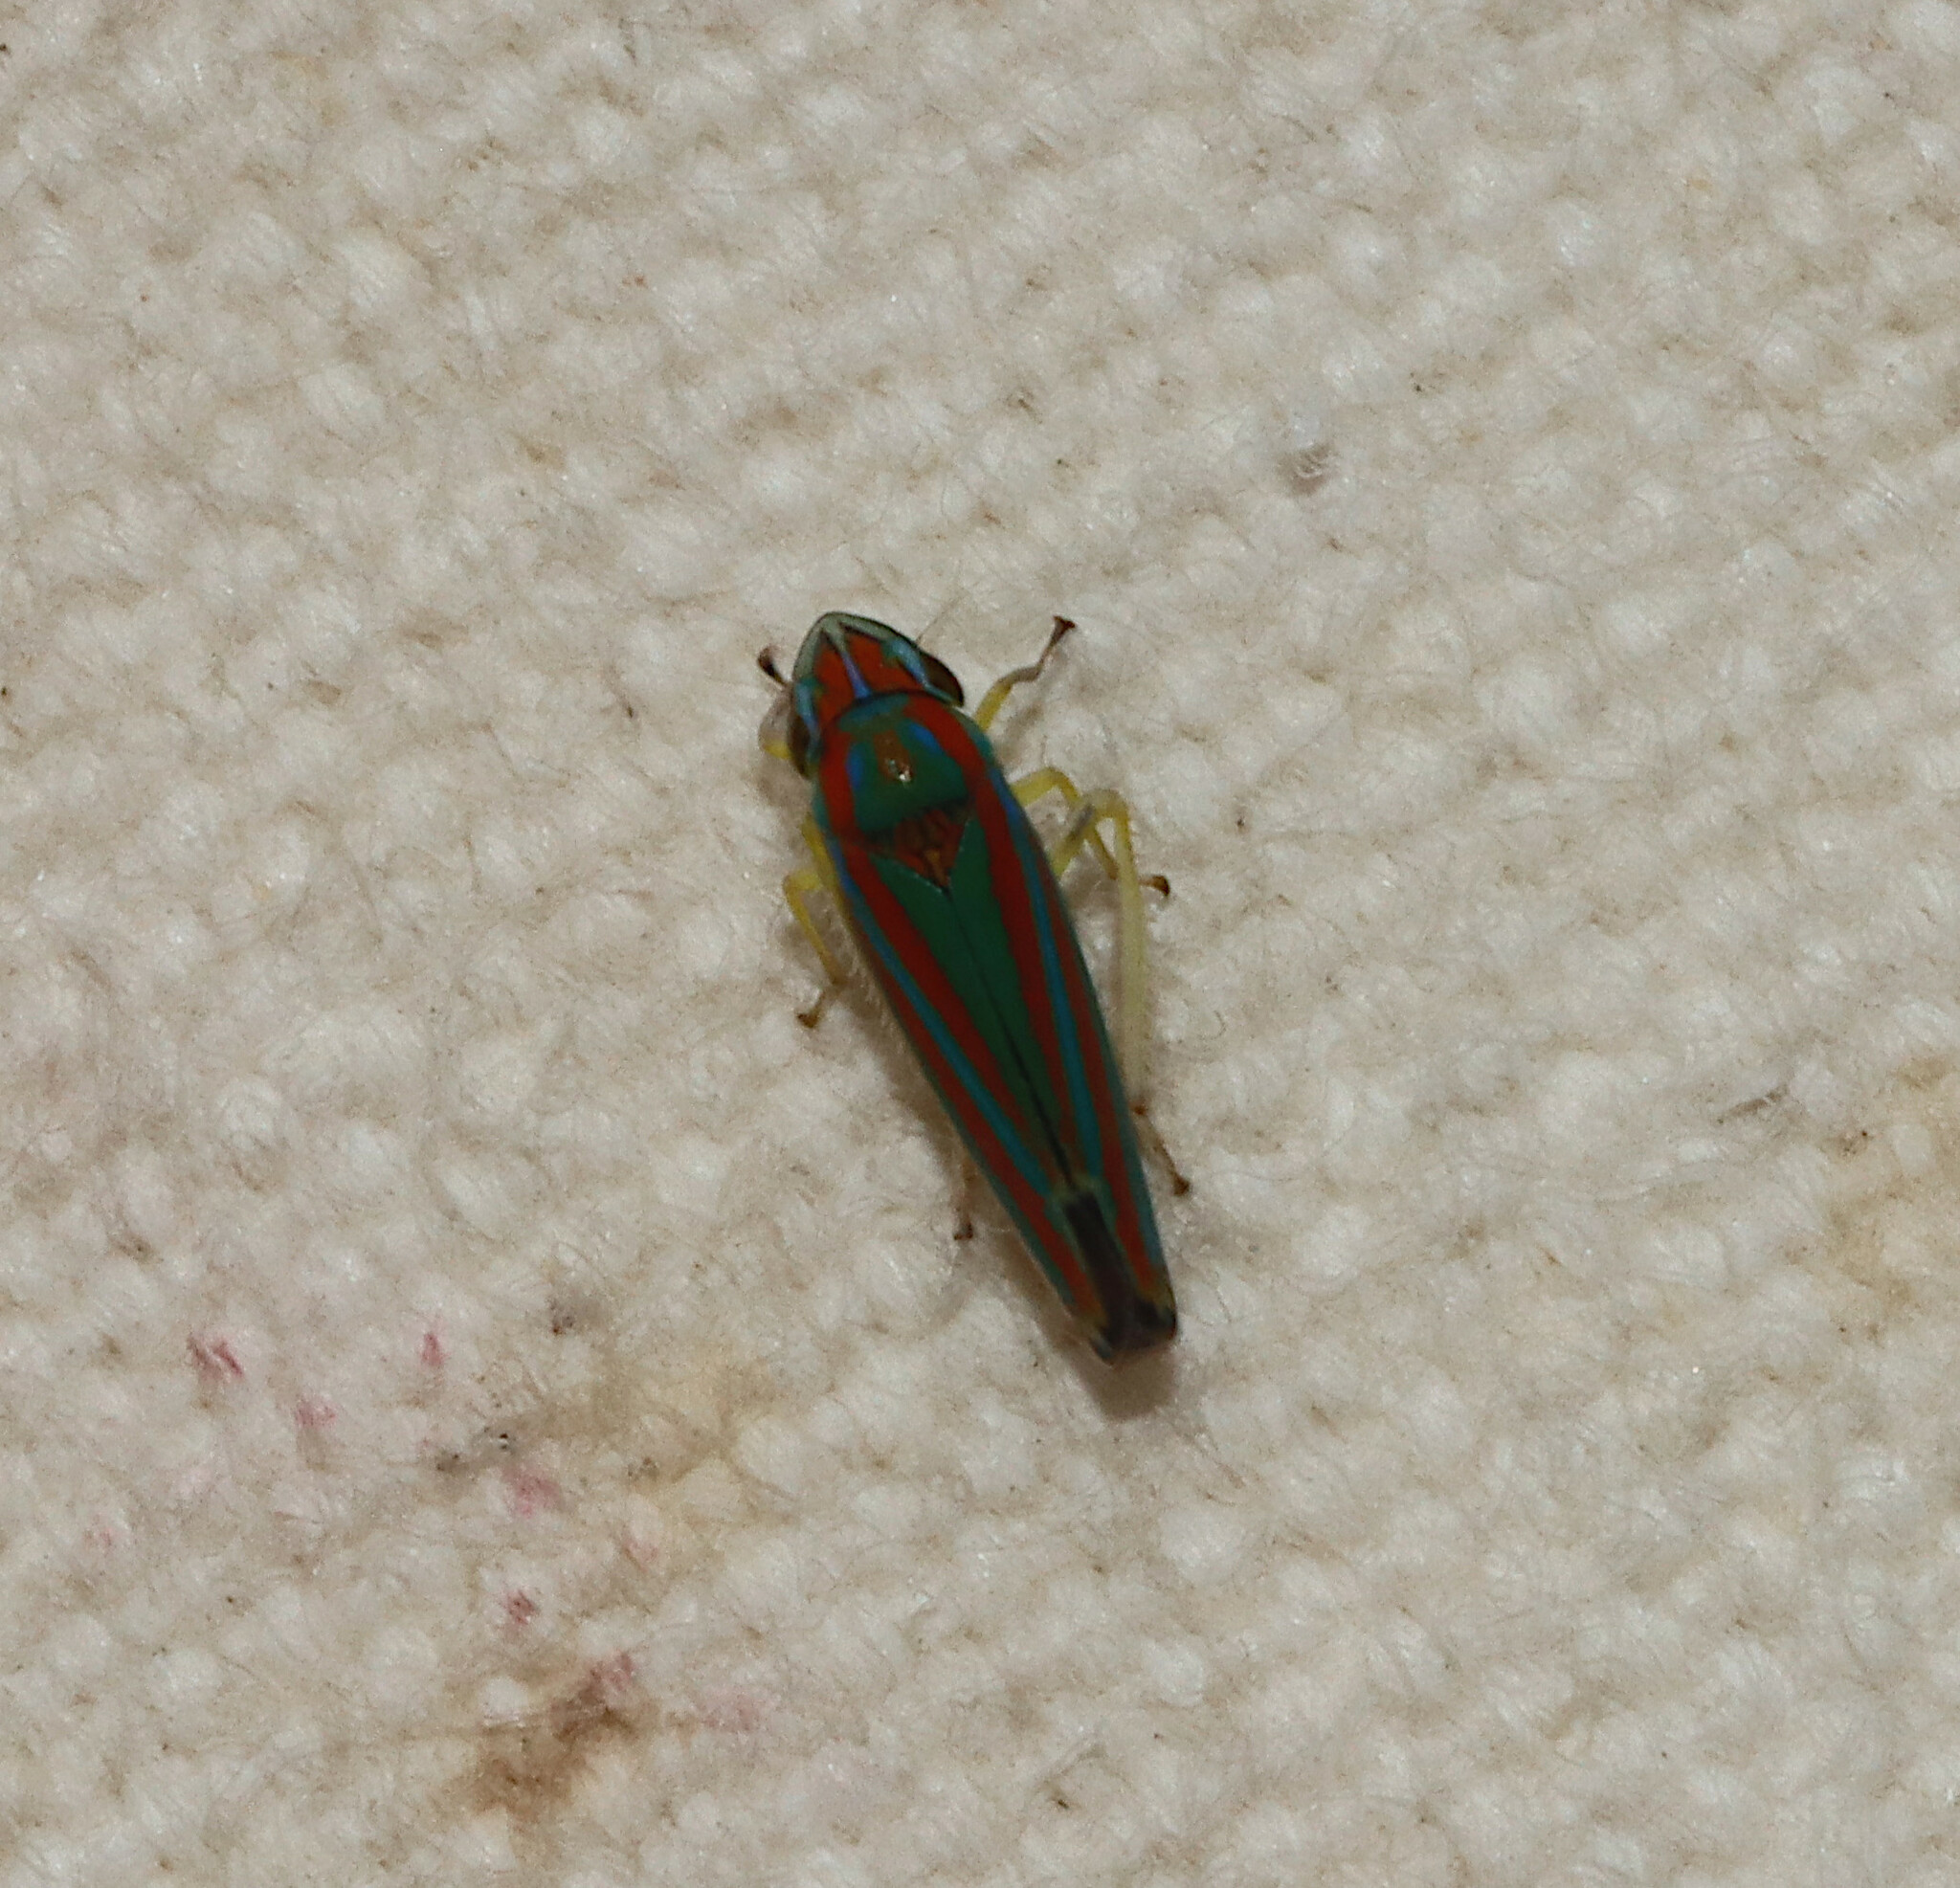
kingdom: Animalia
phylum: Arthropoda
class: Insecta
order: Hemiptera
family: Cicadellidae
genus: Graphocephala
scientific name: Graphocephala versuta
